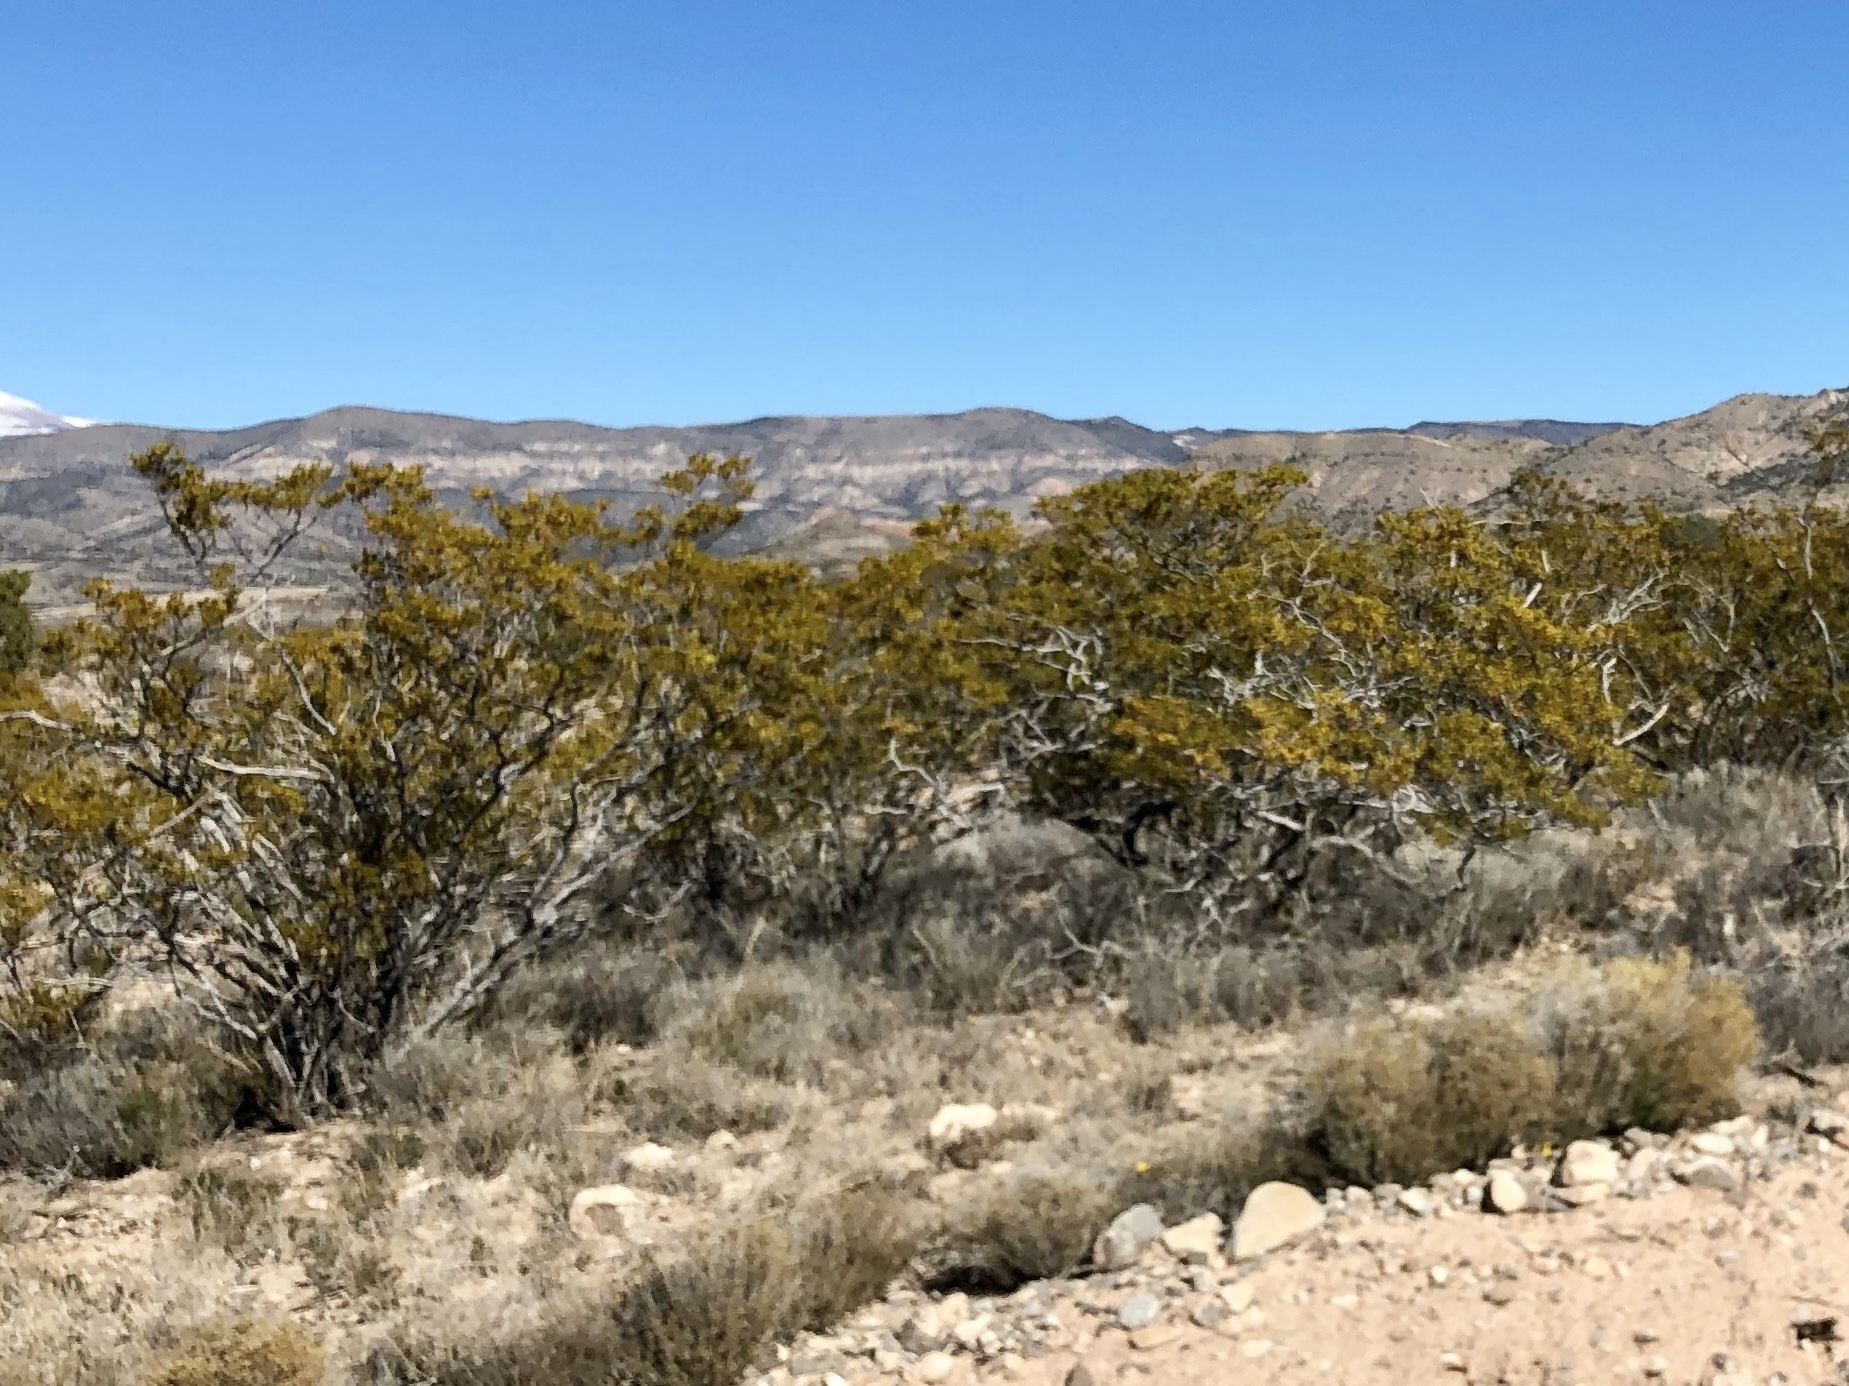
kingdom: Plantae
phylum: Tracheophyta
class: Magnoliopsida
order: Zygophyllales
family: Zygophyllaceae
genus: Larrea
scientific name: Larrea tridentata
